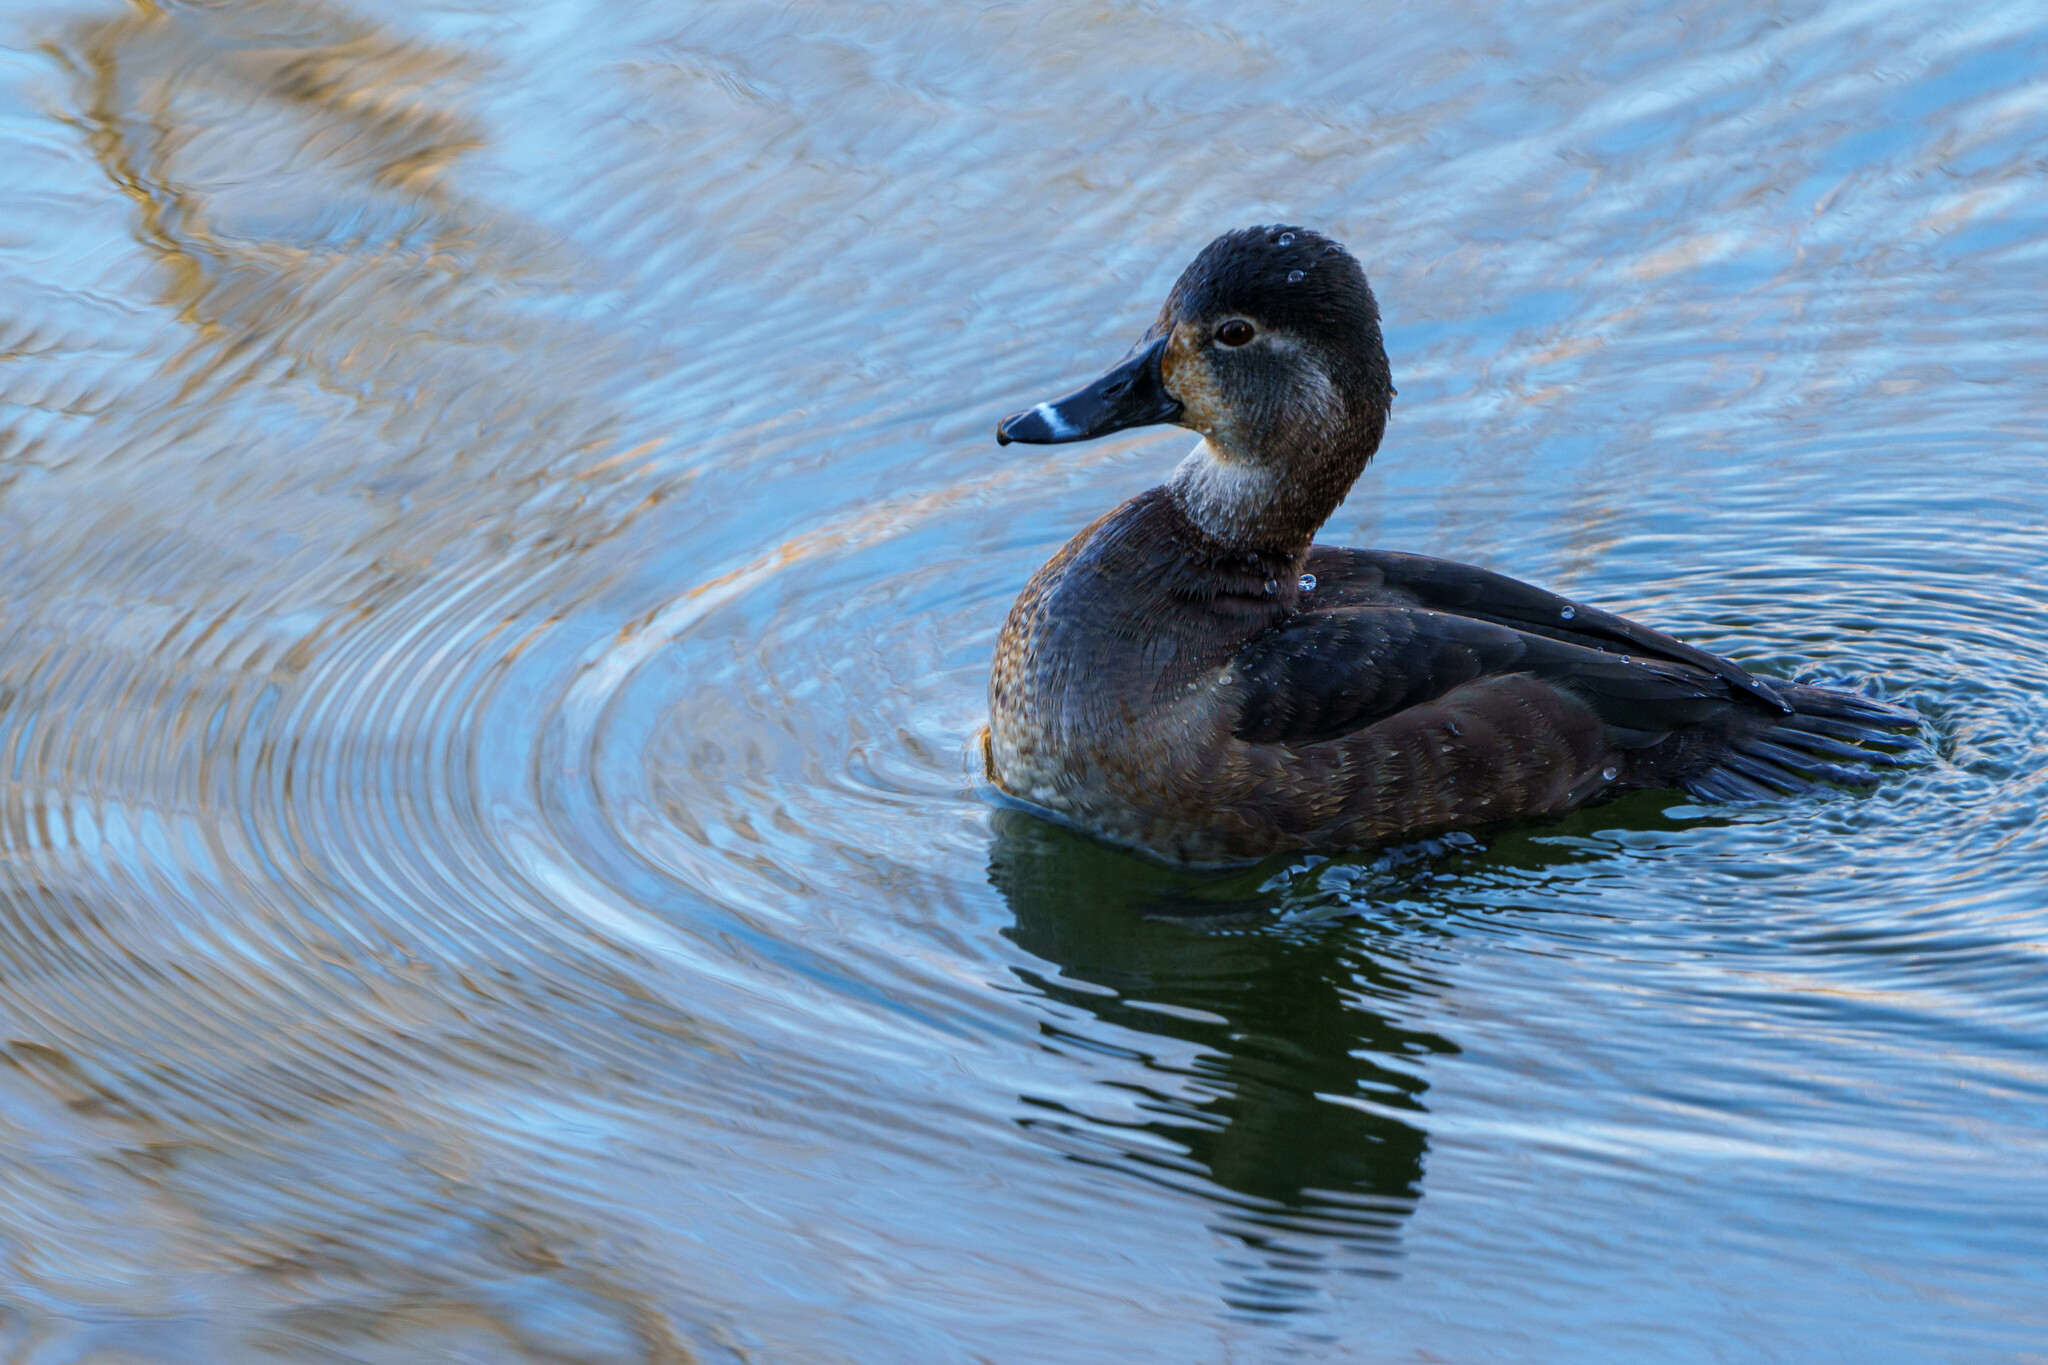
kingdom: Animalia
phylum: Chordata
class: Aves
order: Anseriformes
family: Anatidae
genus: Aythya
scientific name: Aythya collaris
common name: Ring-necked duck
